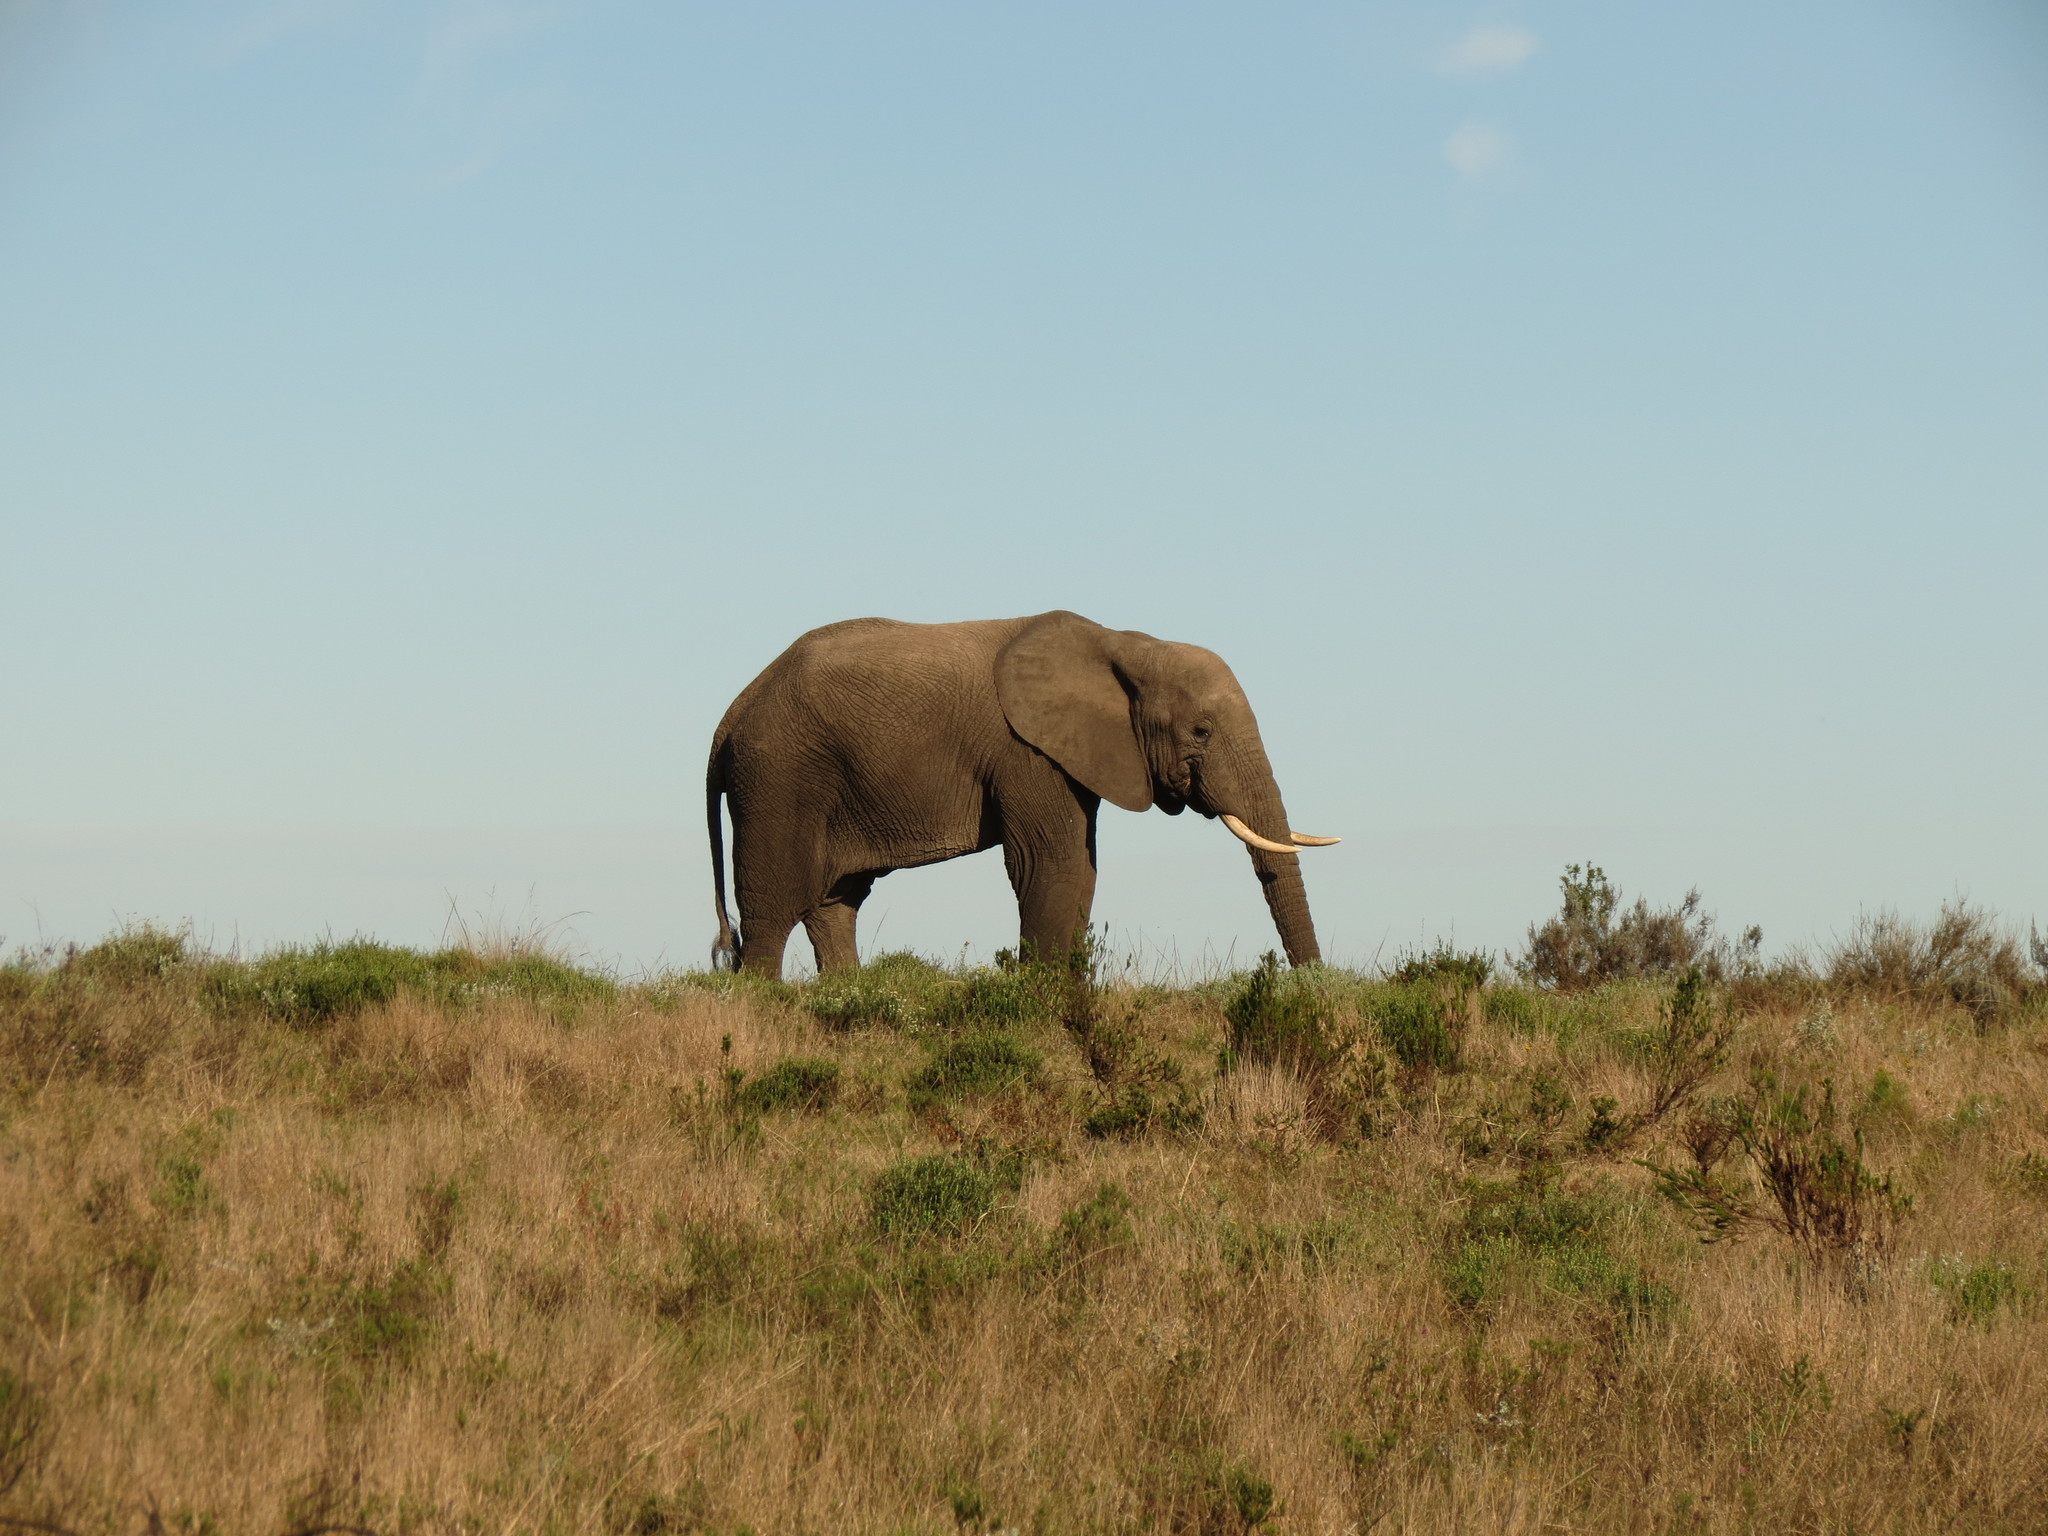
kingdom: Animalia
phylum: Chordata
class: Mammalia
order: Proboscidea
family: Elephantidae
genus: Loxodonta
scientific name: Loxodonta africana
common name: African elephant
